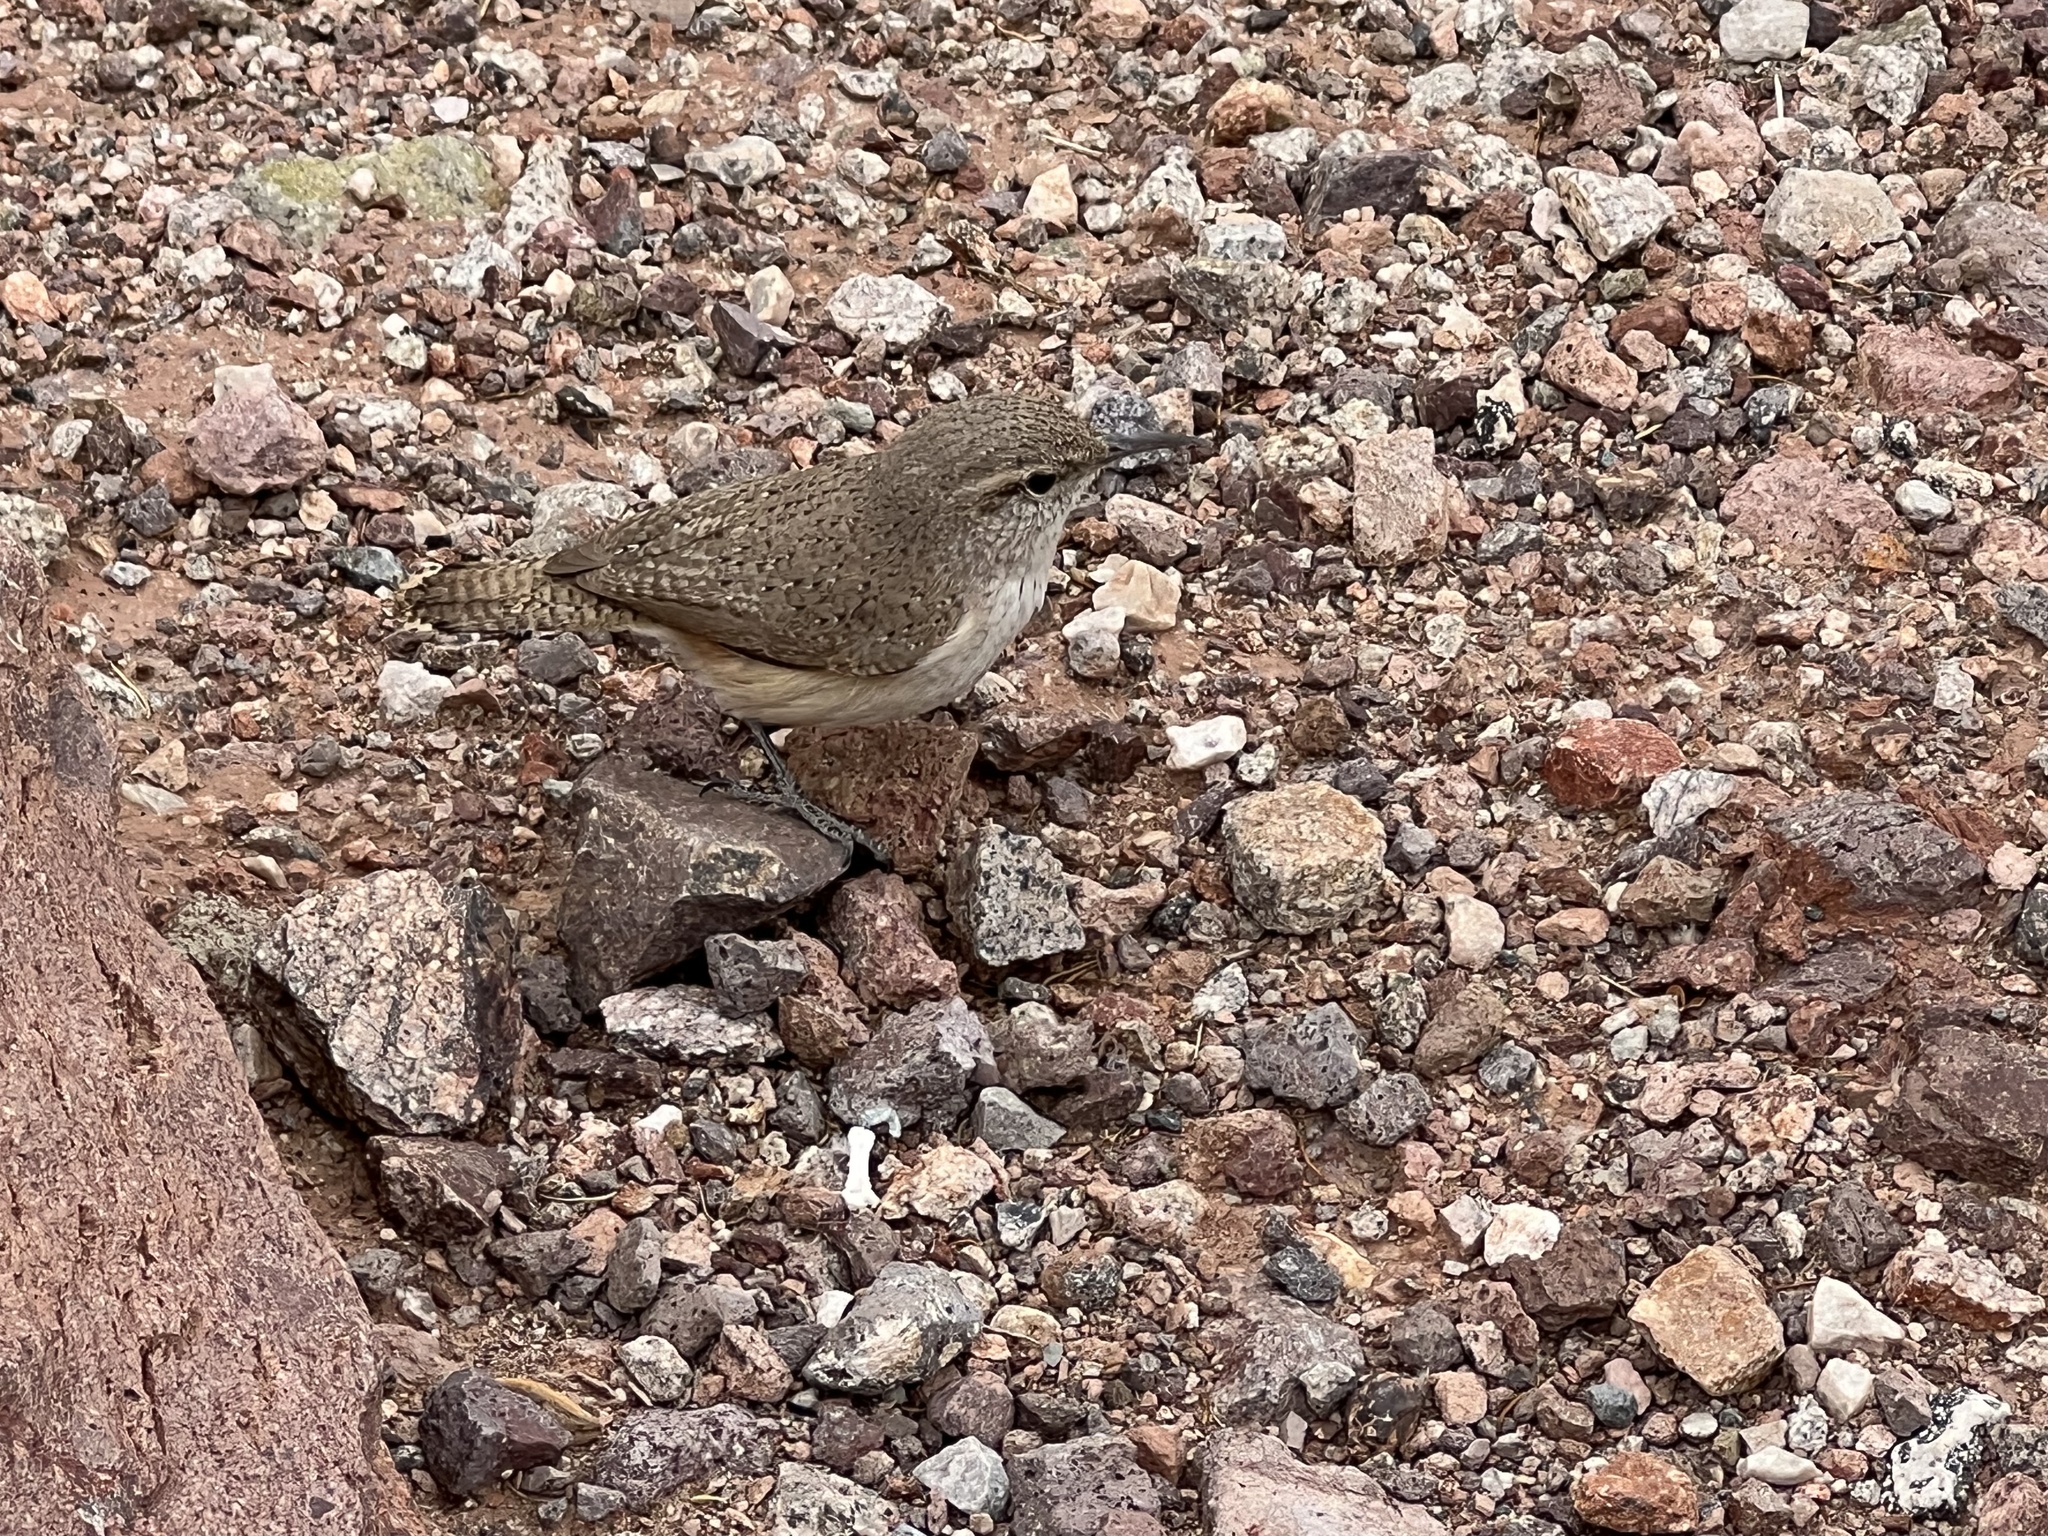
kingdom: Animalia
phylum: Chordata
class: Aves
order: Passeriformes
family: Troglodytidae
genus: Salpinctes
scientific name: Salpinctes obsoletus
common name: Rock wren
